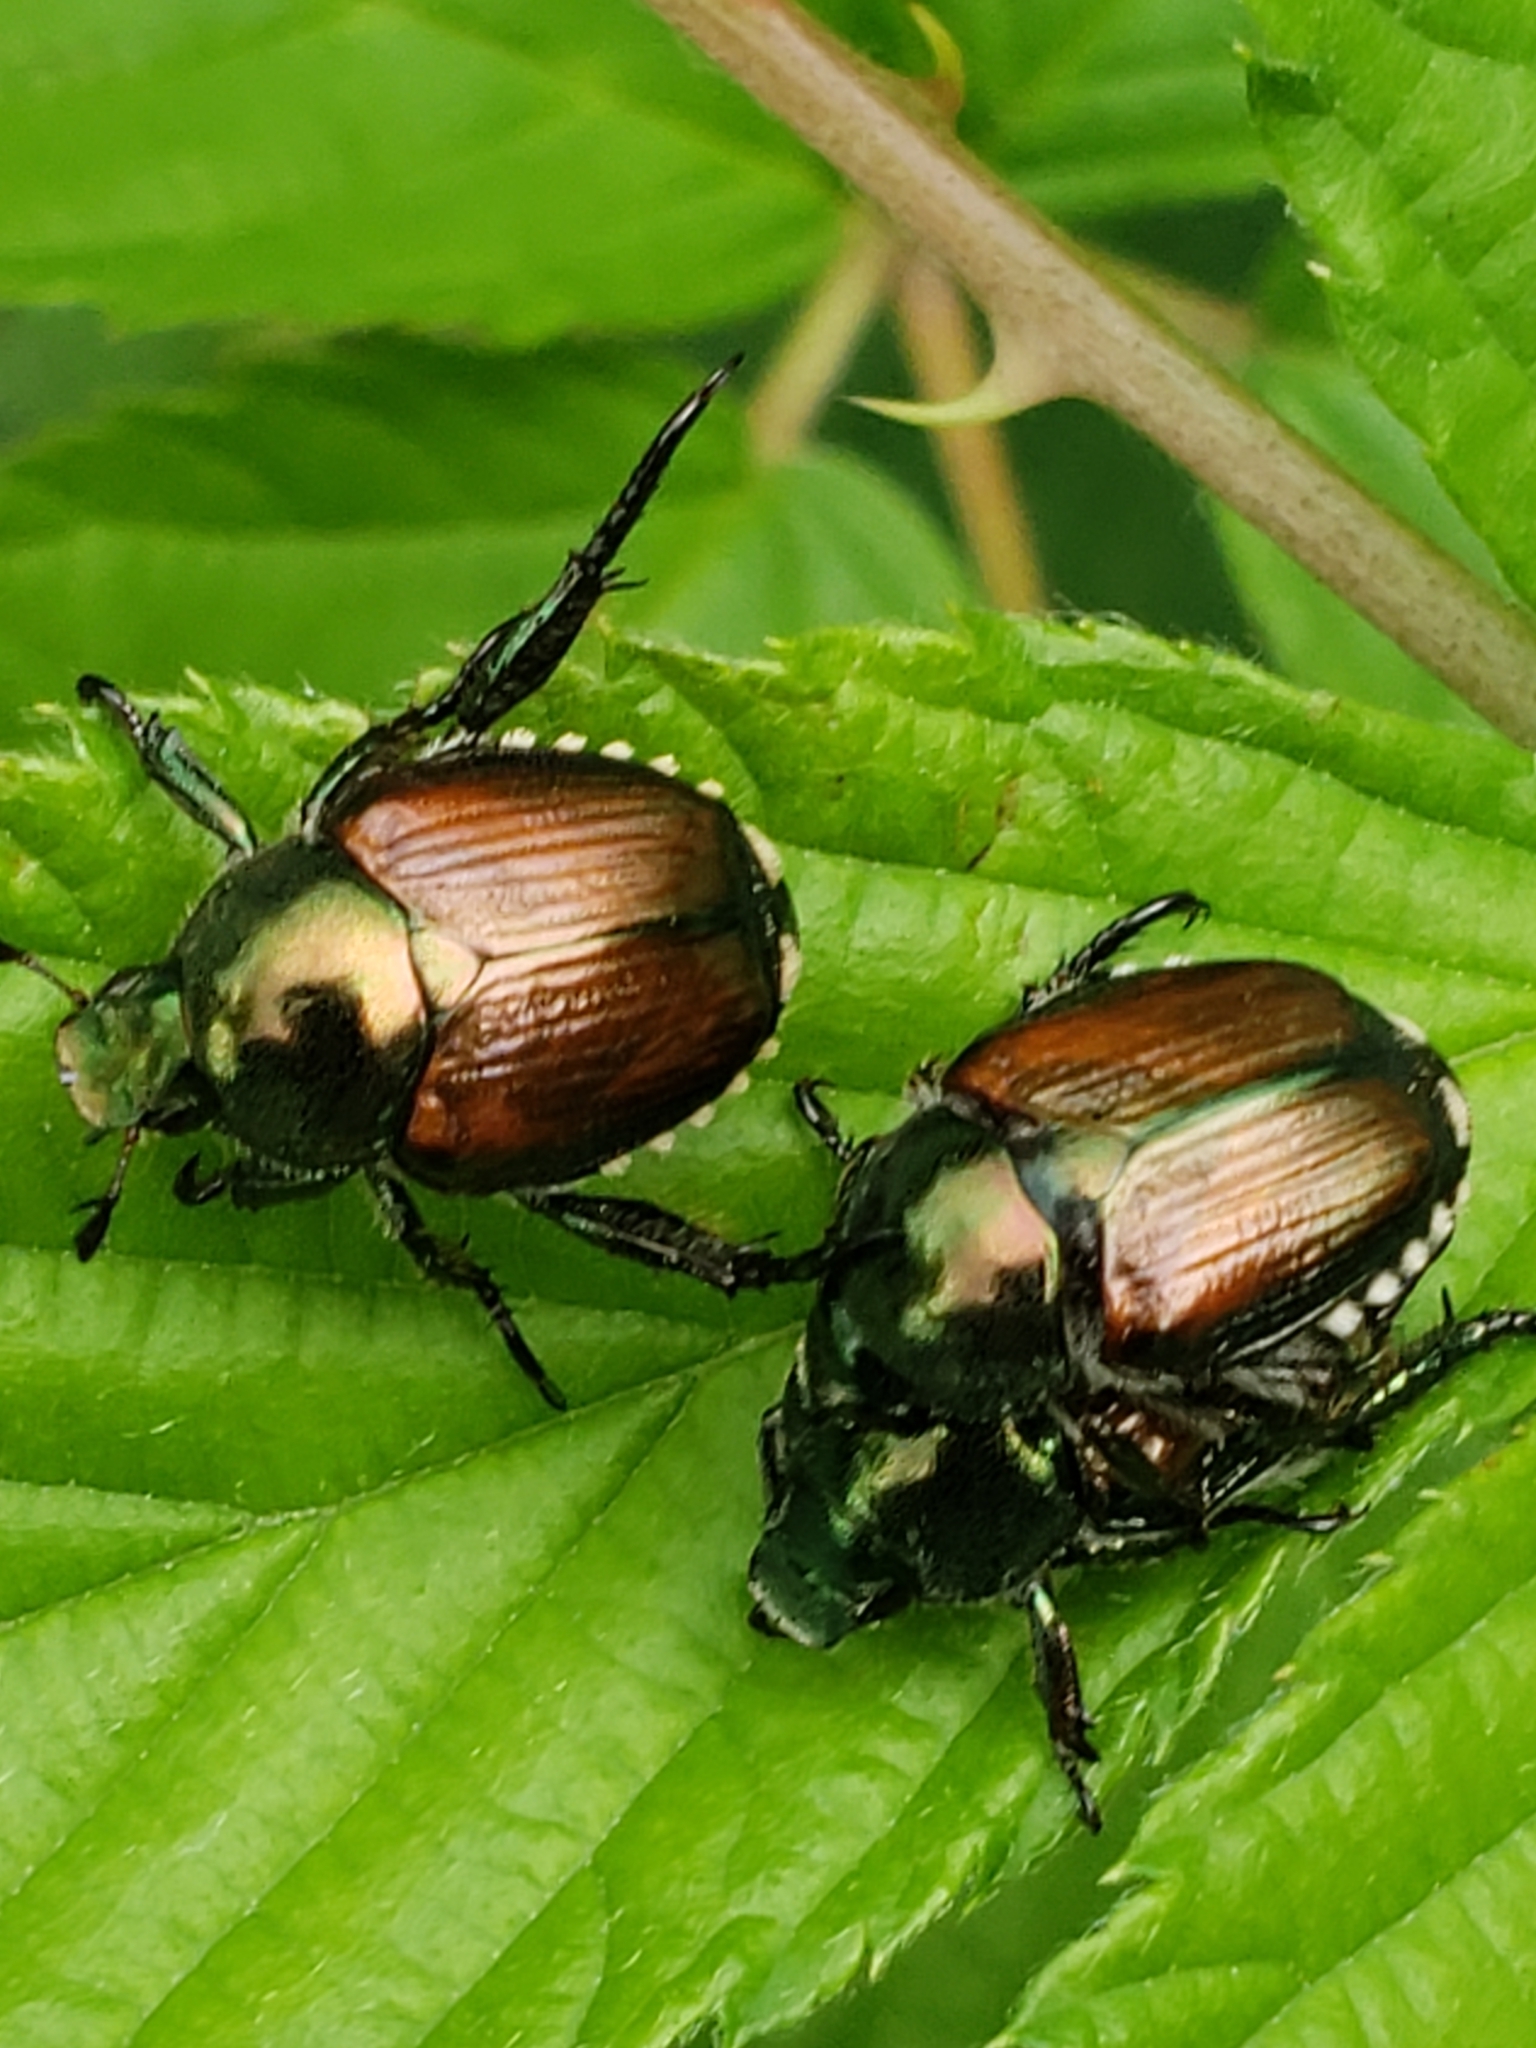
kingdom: Animalia
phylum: Arthropoda
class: Insecta
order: Coleoptera
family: Scarabaeidae
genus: Popillia
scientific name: Popillia japonica
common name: Japanese beetle
